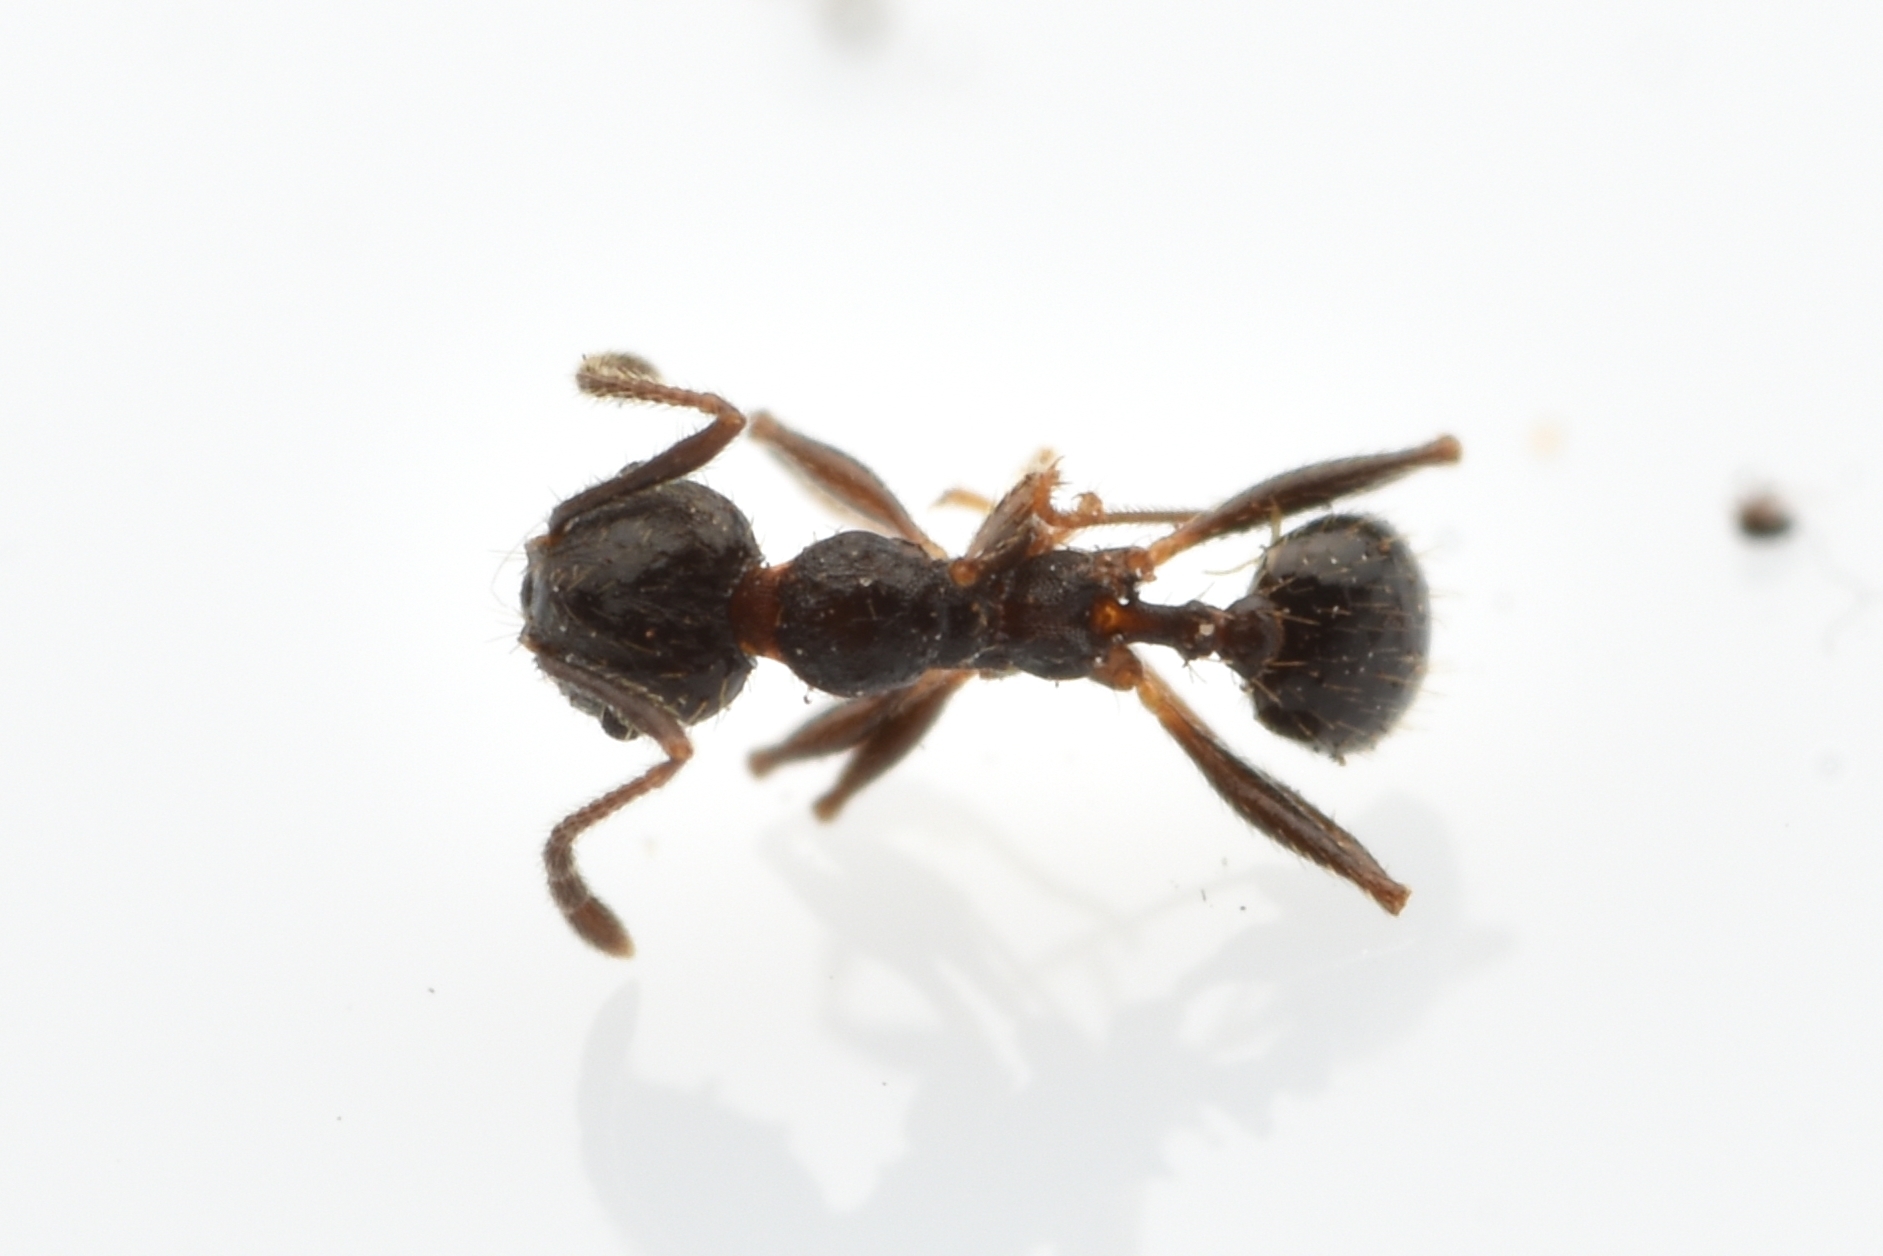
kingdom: Animalia
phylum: Arthropoda
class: Insecta
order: Hymenoptera
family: Formicidae
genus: Pheidole
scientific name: Pheidole tetra
